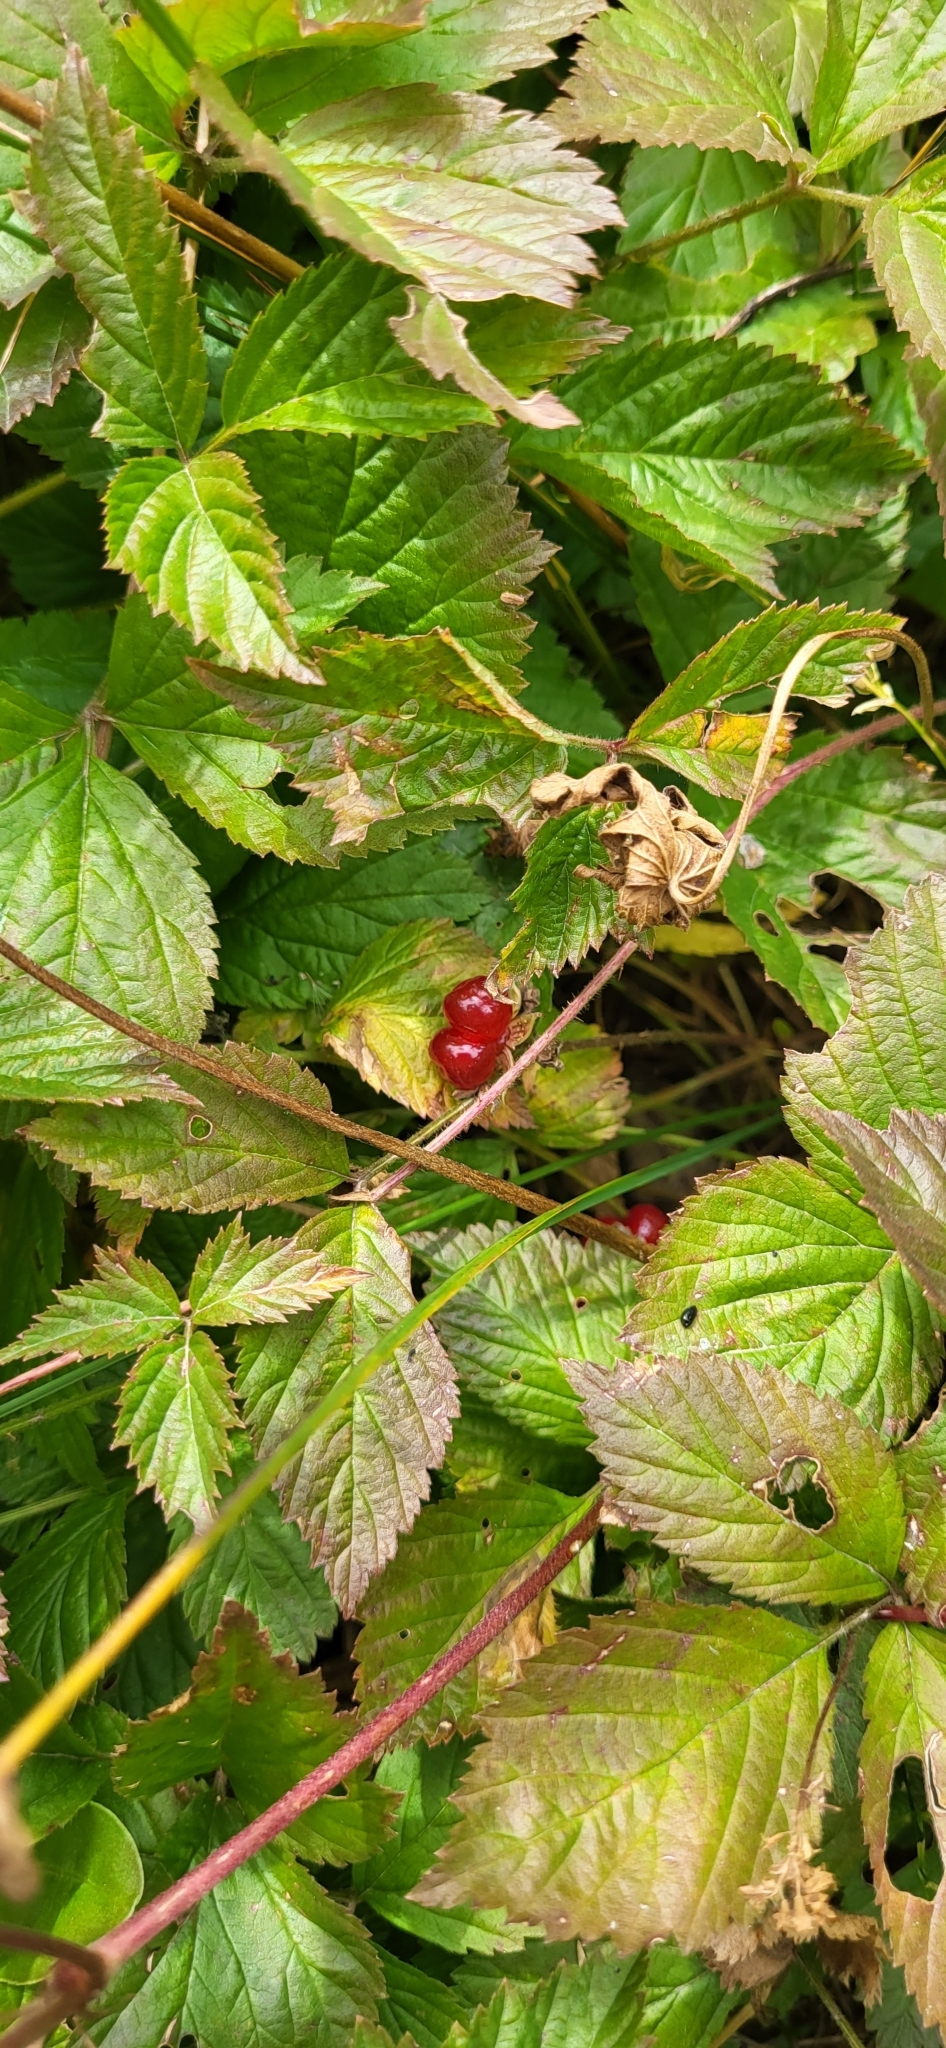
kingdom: Plantae
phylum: Tracheophyta
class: Magnoliopsida
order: Rosales
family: Rosaceae
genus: Rubus
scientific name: Rubus saxatilis
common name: Stone bramble
